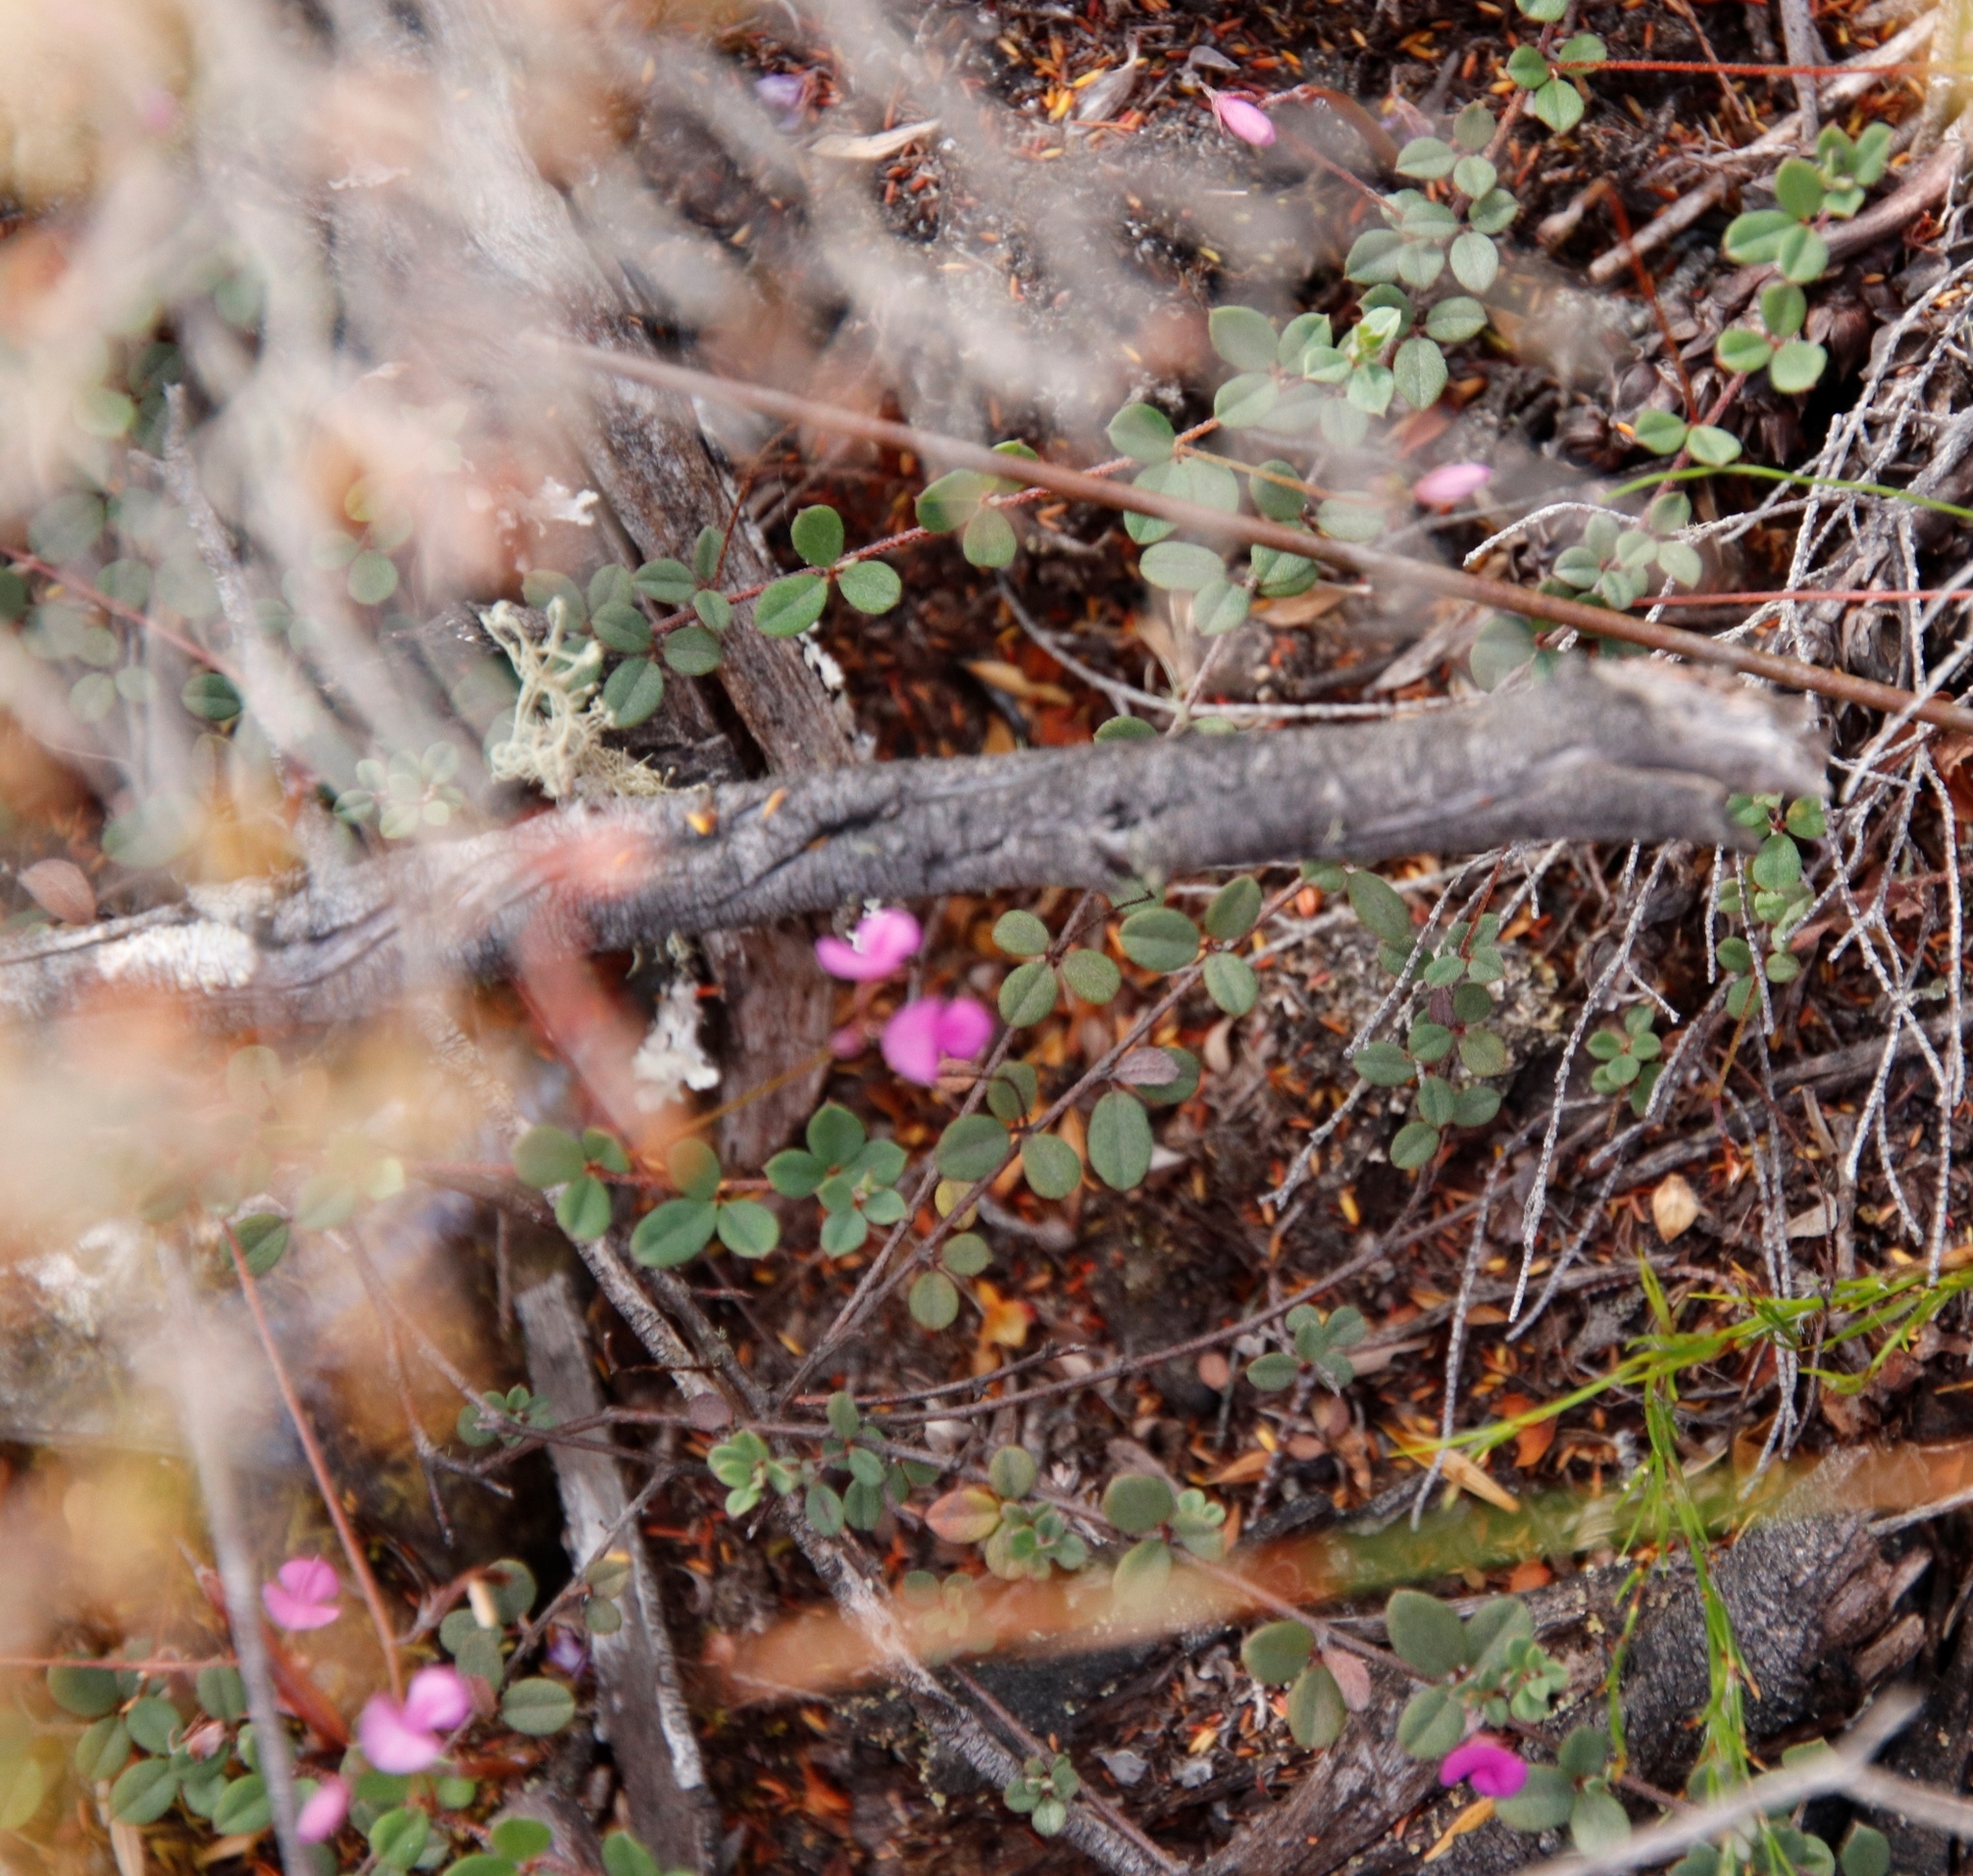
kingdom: Plantae
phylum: Tracheophyta
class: Magnoliopsida
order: Fabales
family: Fabaceae
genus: Indigofera
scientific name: Indigofera sarmentosa
